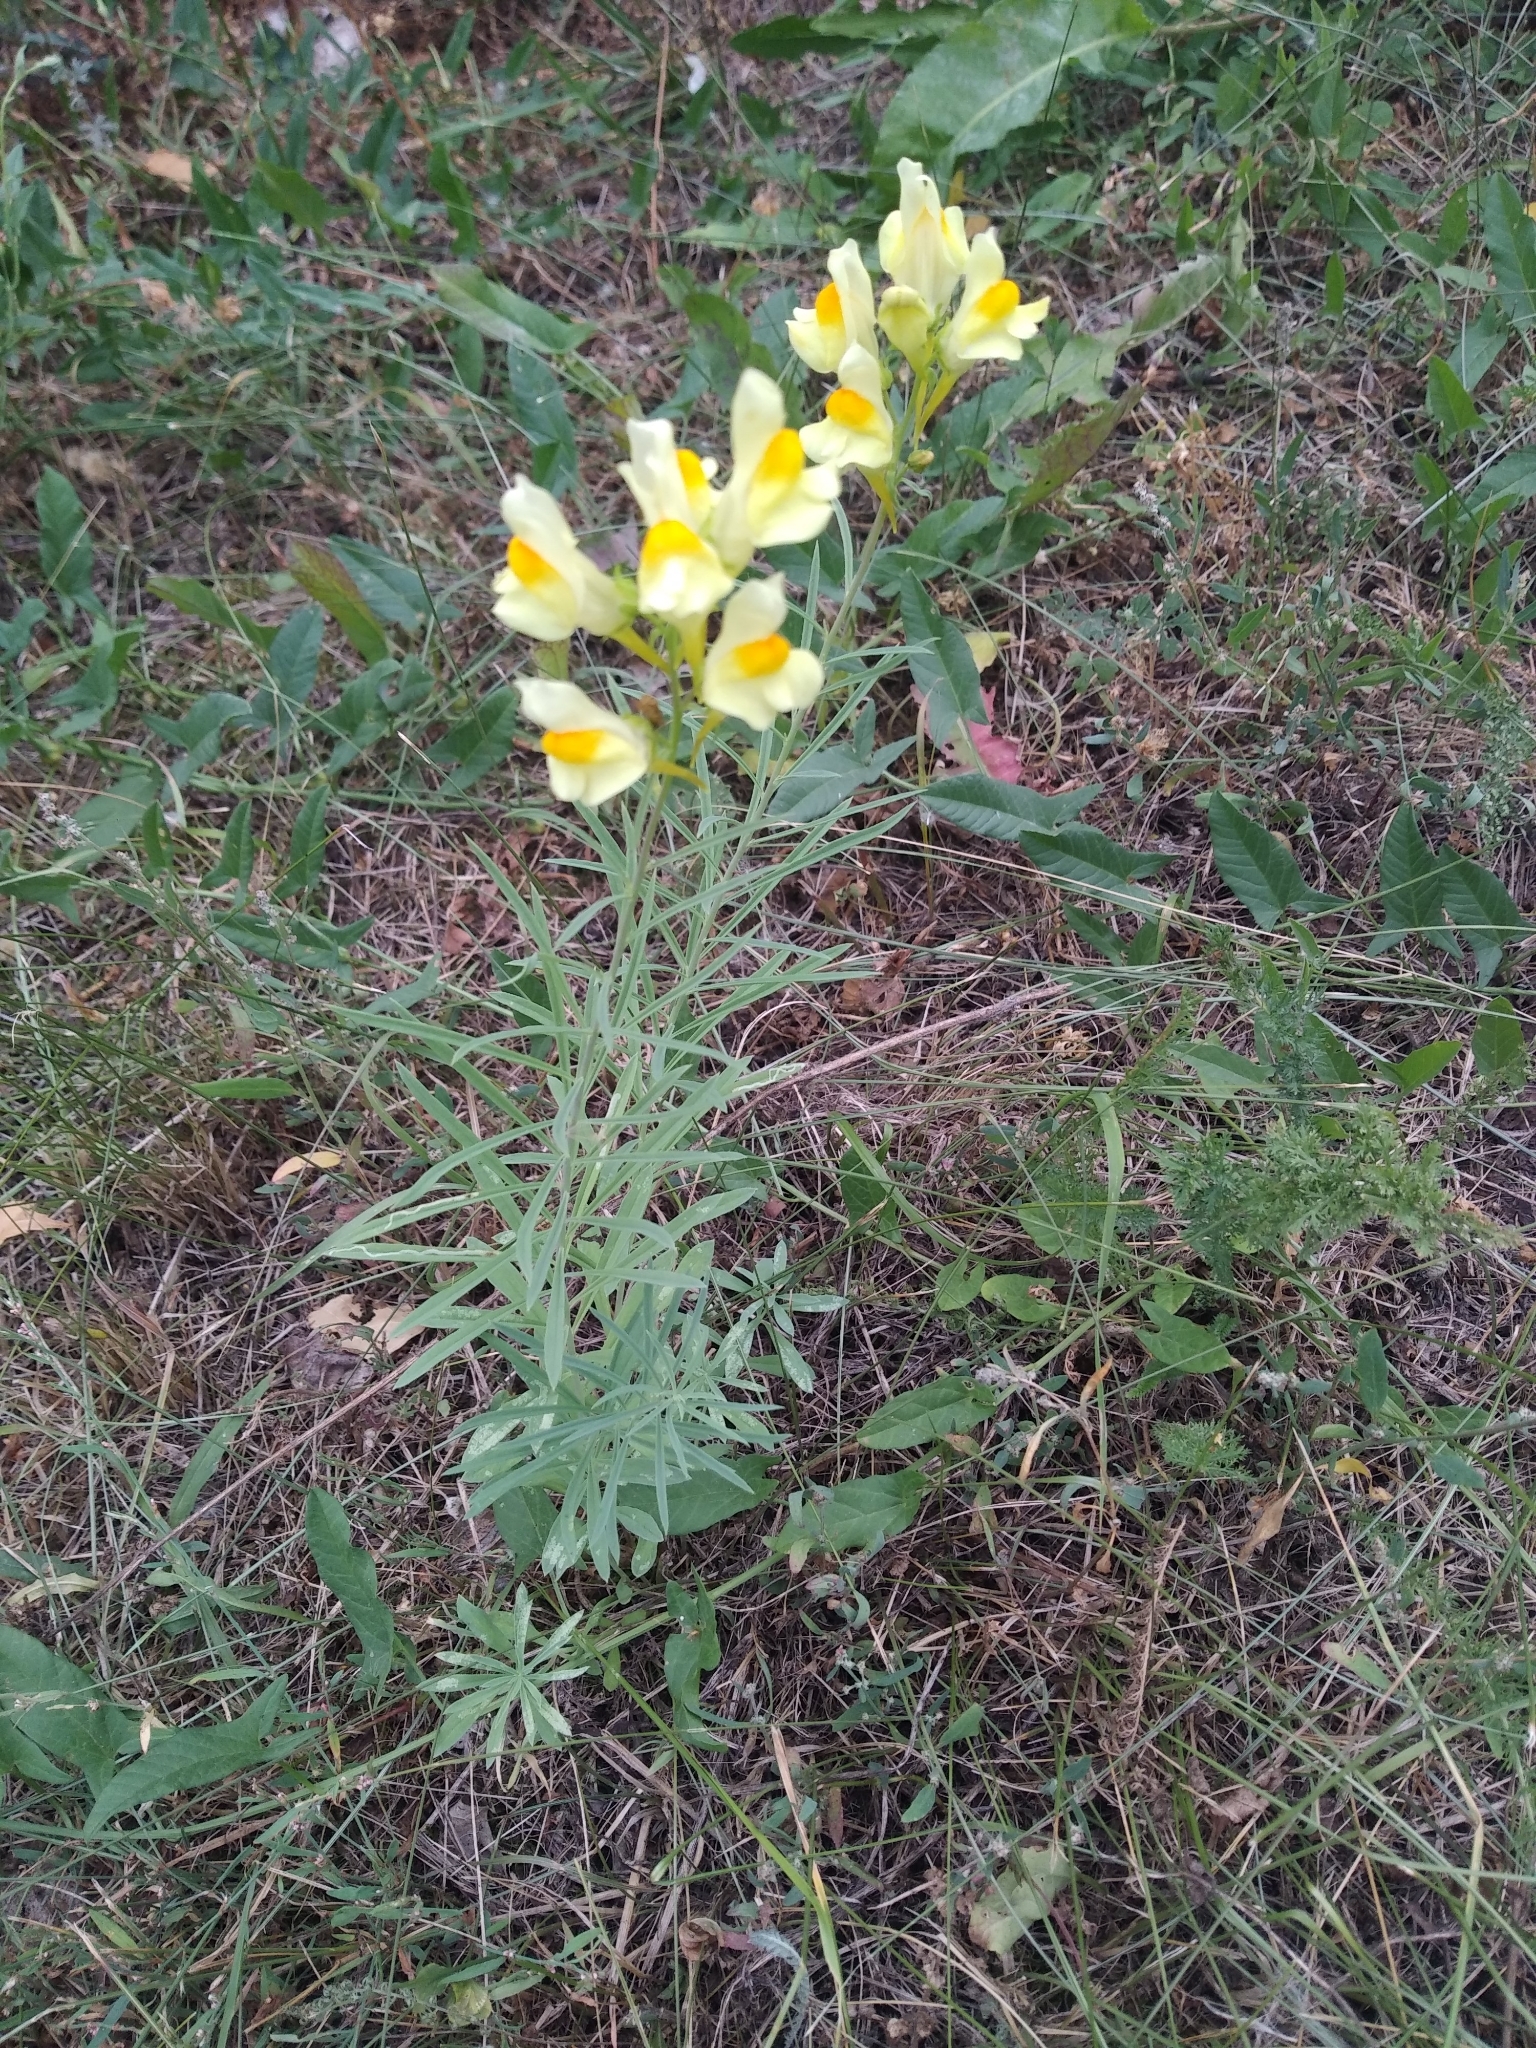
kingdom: Plantae
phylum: Tracheophyta
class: Magnoliopsida
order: Lamiales
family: Plantaginaceae
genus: Linaria
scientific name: Linaria vulgaris
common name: Butter and eggs
